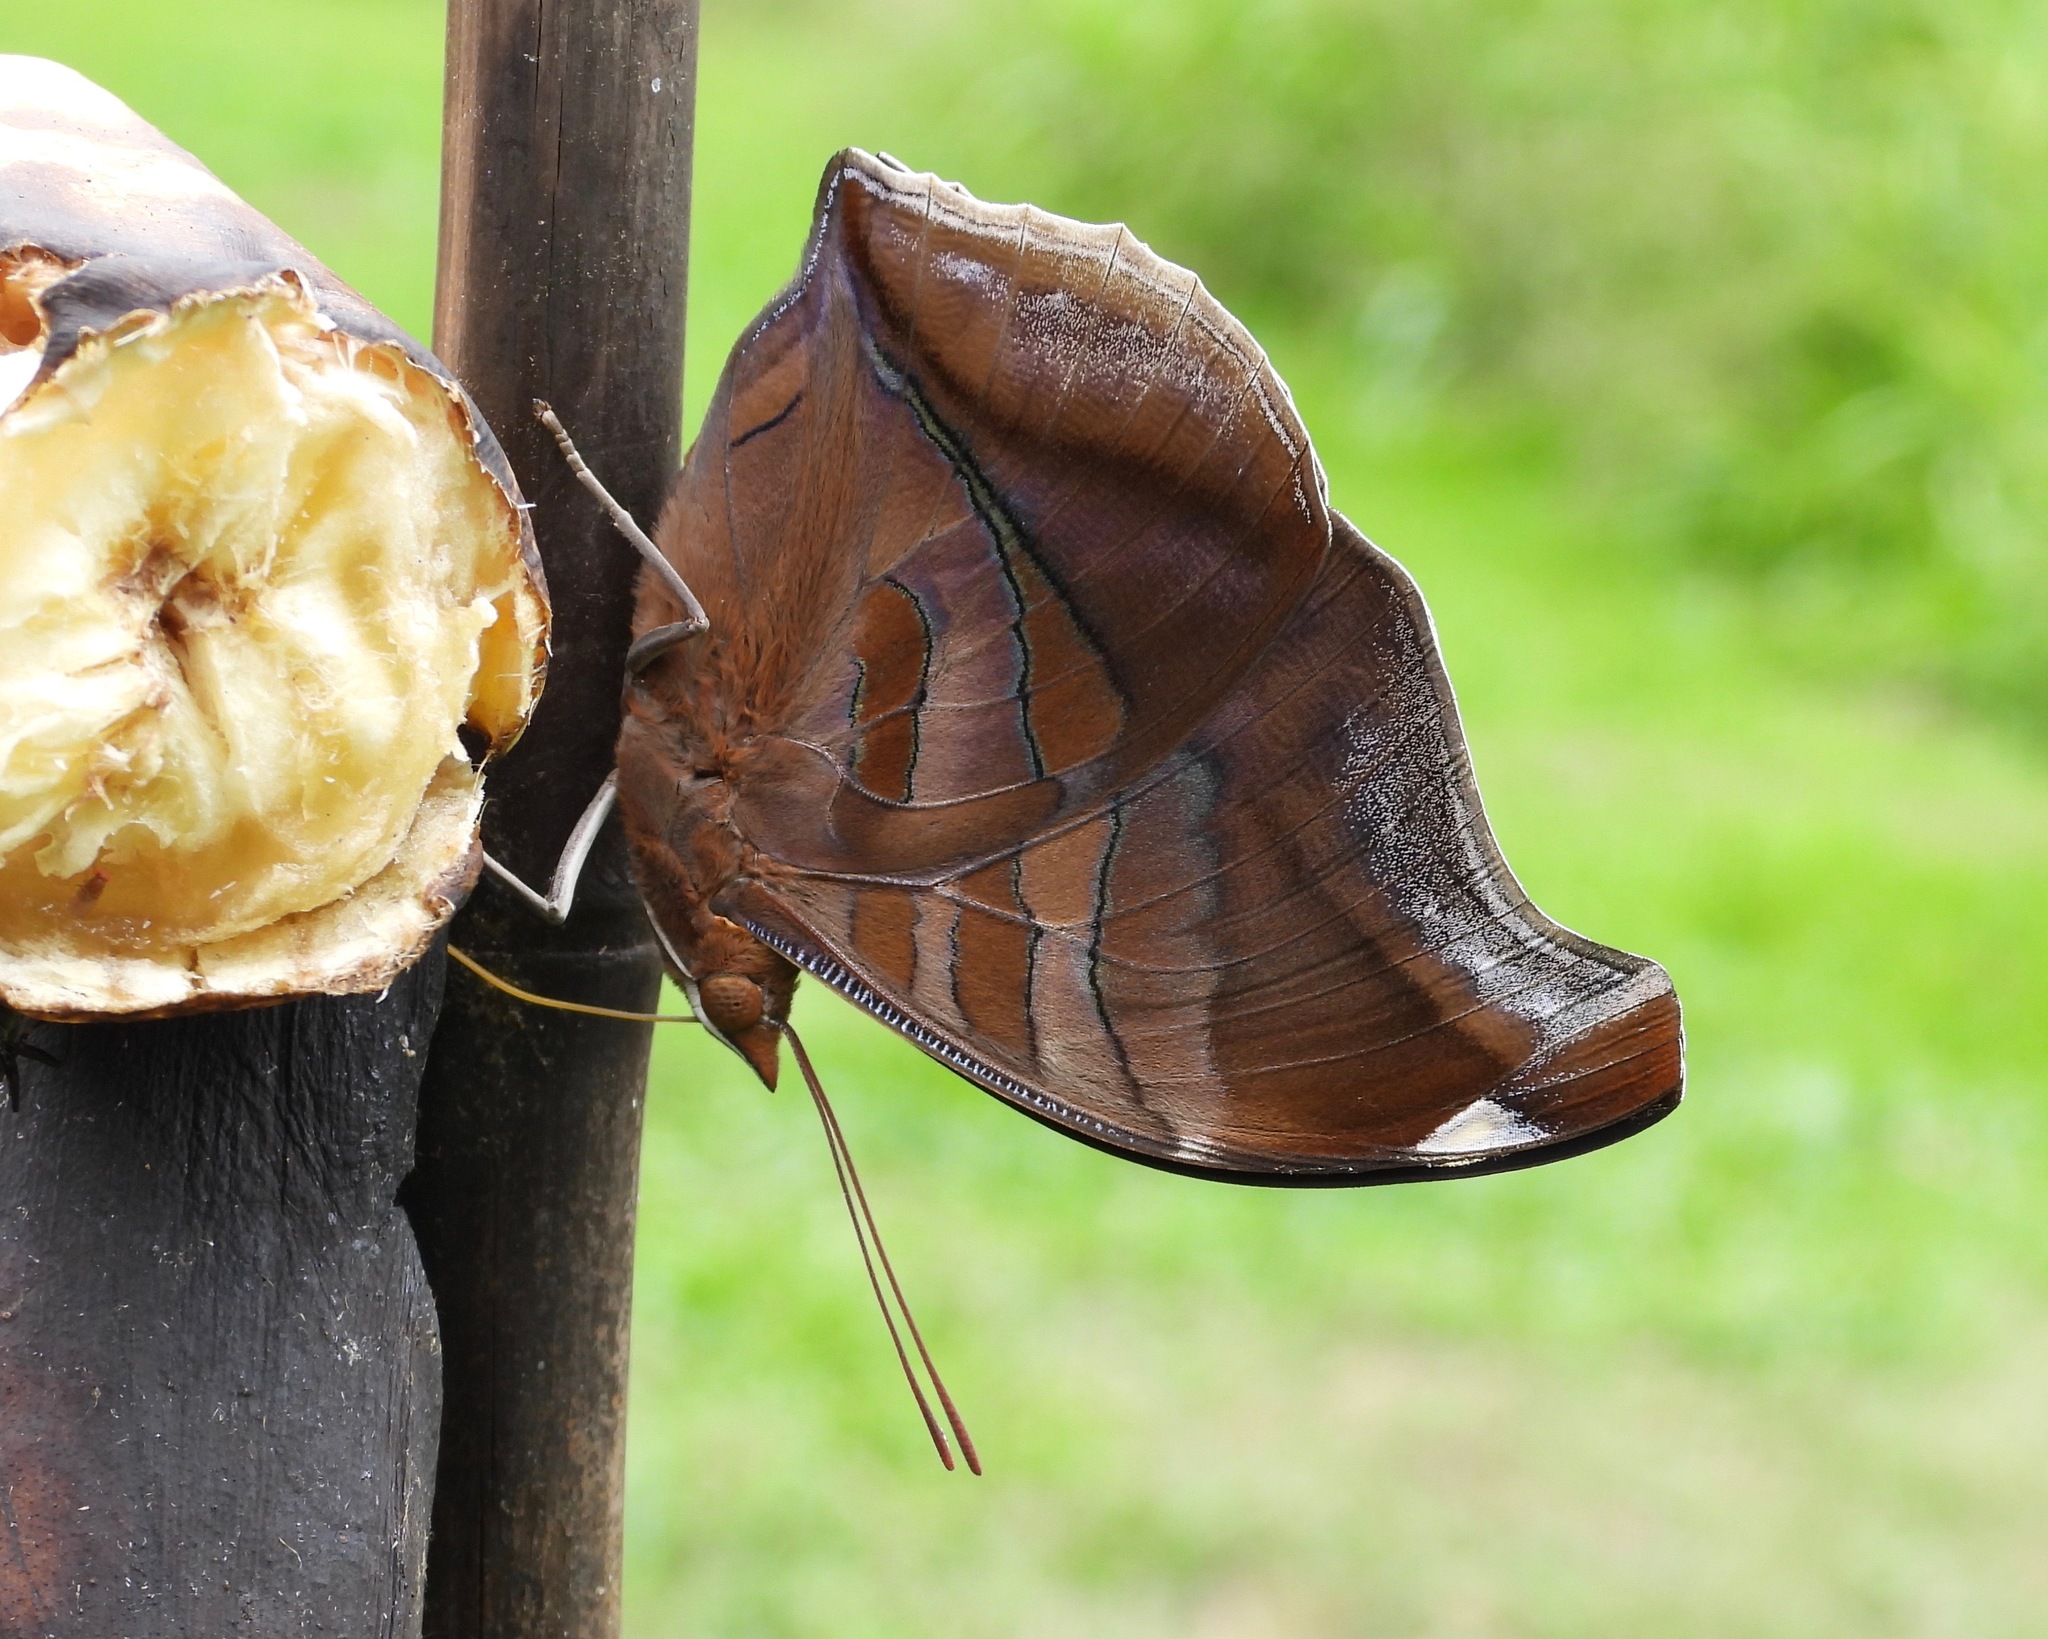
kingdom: Animalia
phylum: Arthropoda
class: Insecta
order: Lepidoptera
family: Nymphalidae
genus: Historis
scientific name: Historis odius
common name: Orion cecropian
